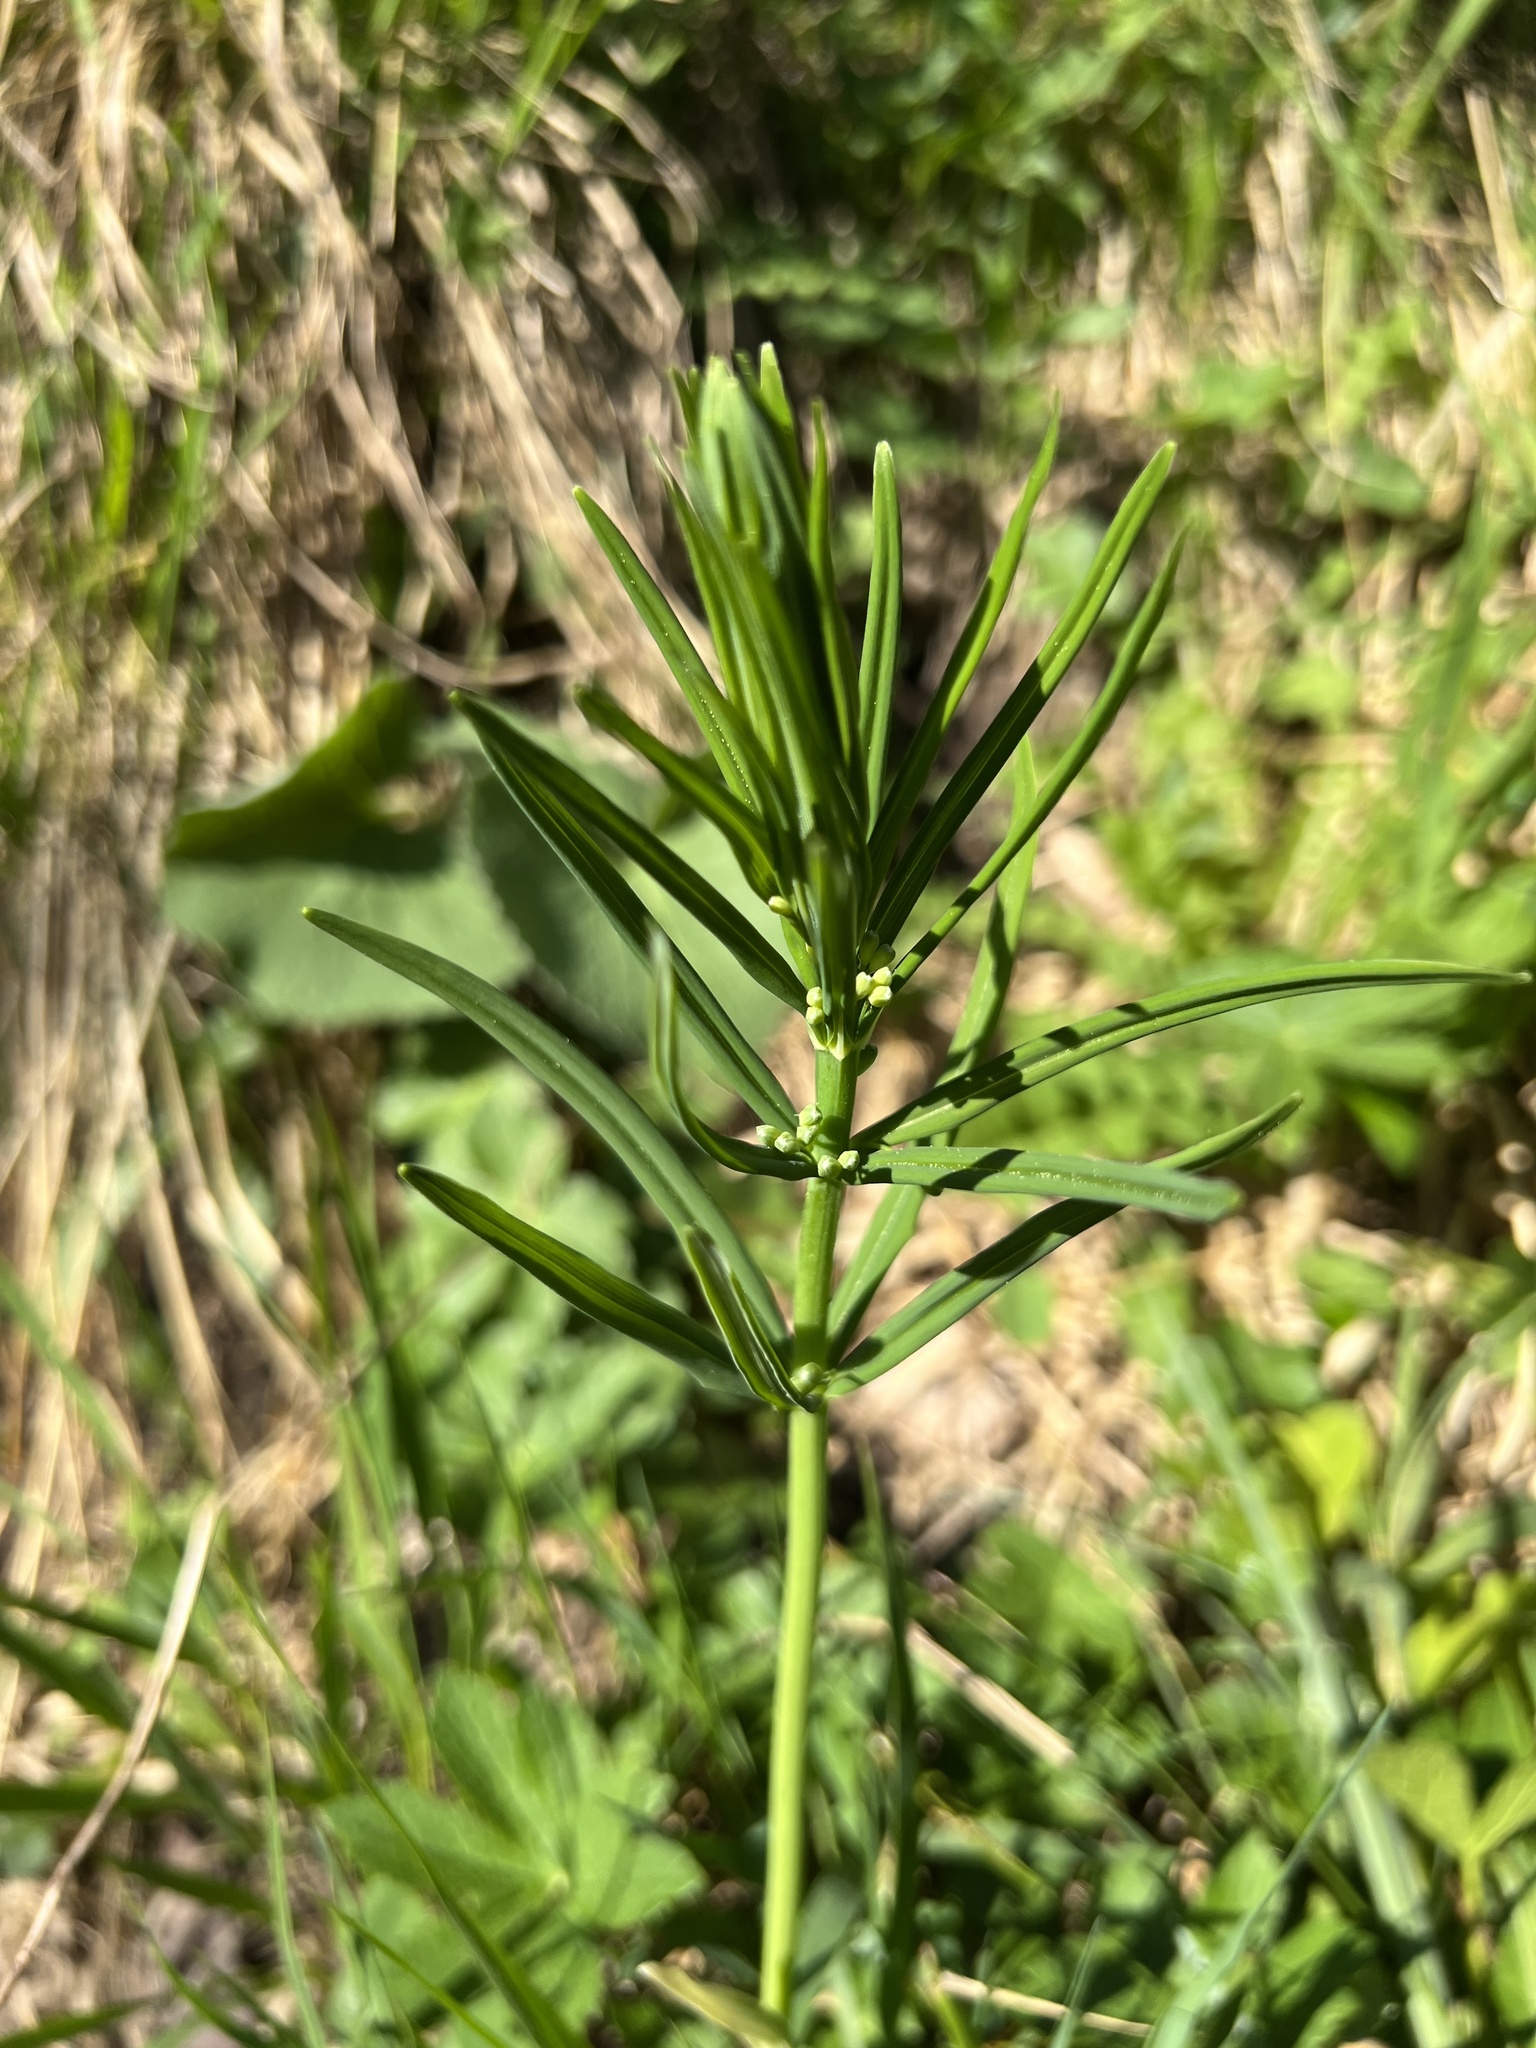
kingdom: Plantae
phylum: Tracheophyta
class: Liliopsida
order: Asparagales
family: Asparagaceae
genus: Polygonatum
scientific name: Polygonatum verticillatum
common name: Whorled solomon's-seal
